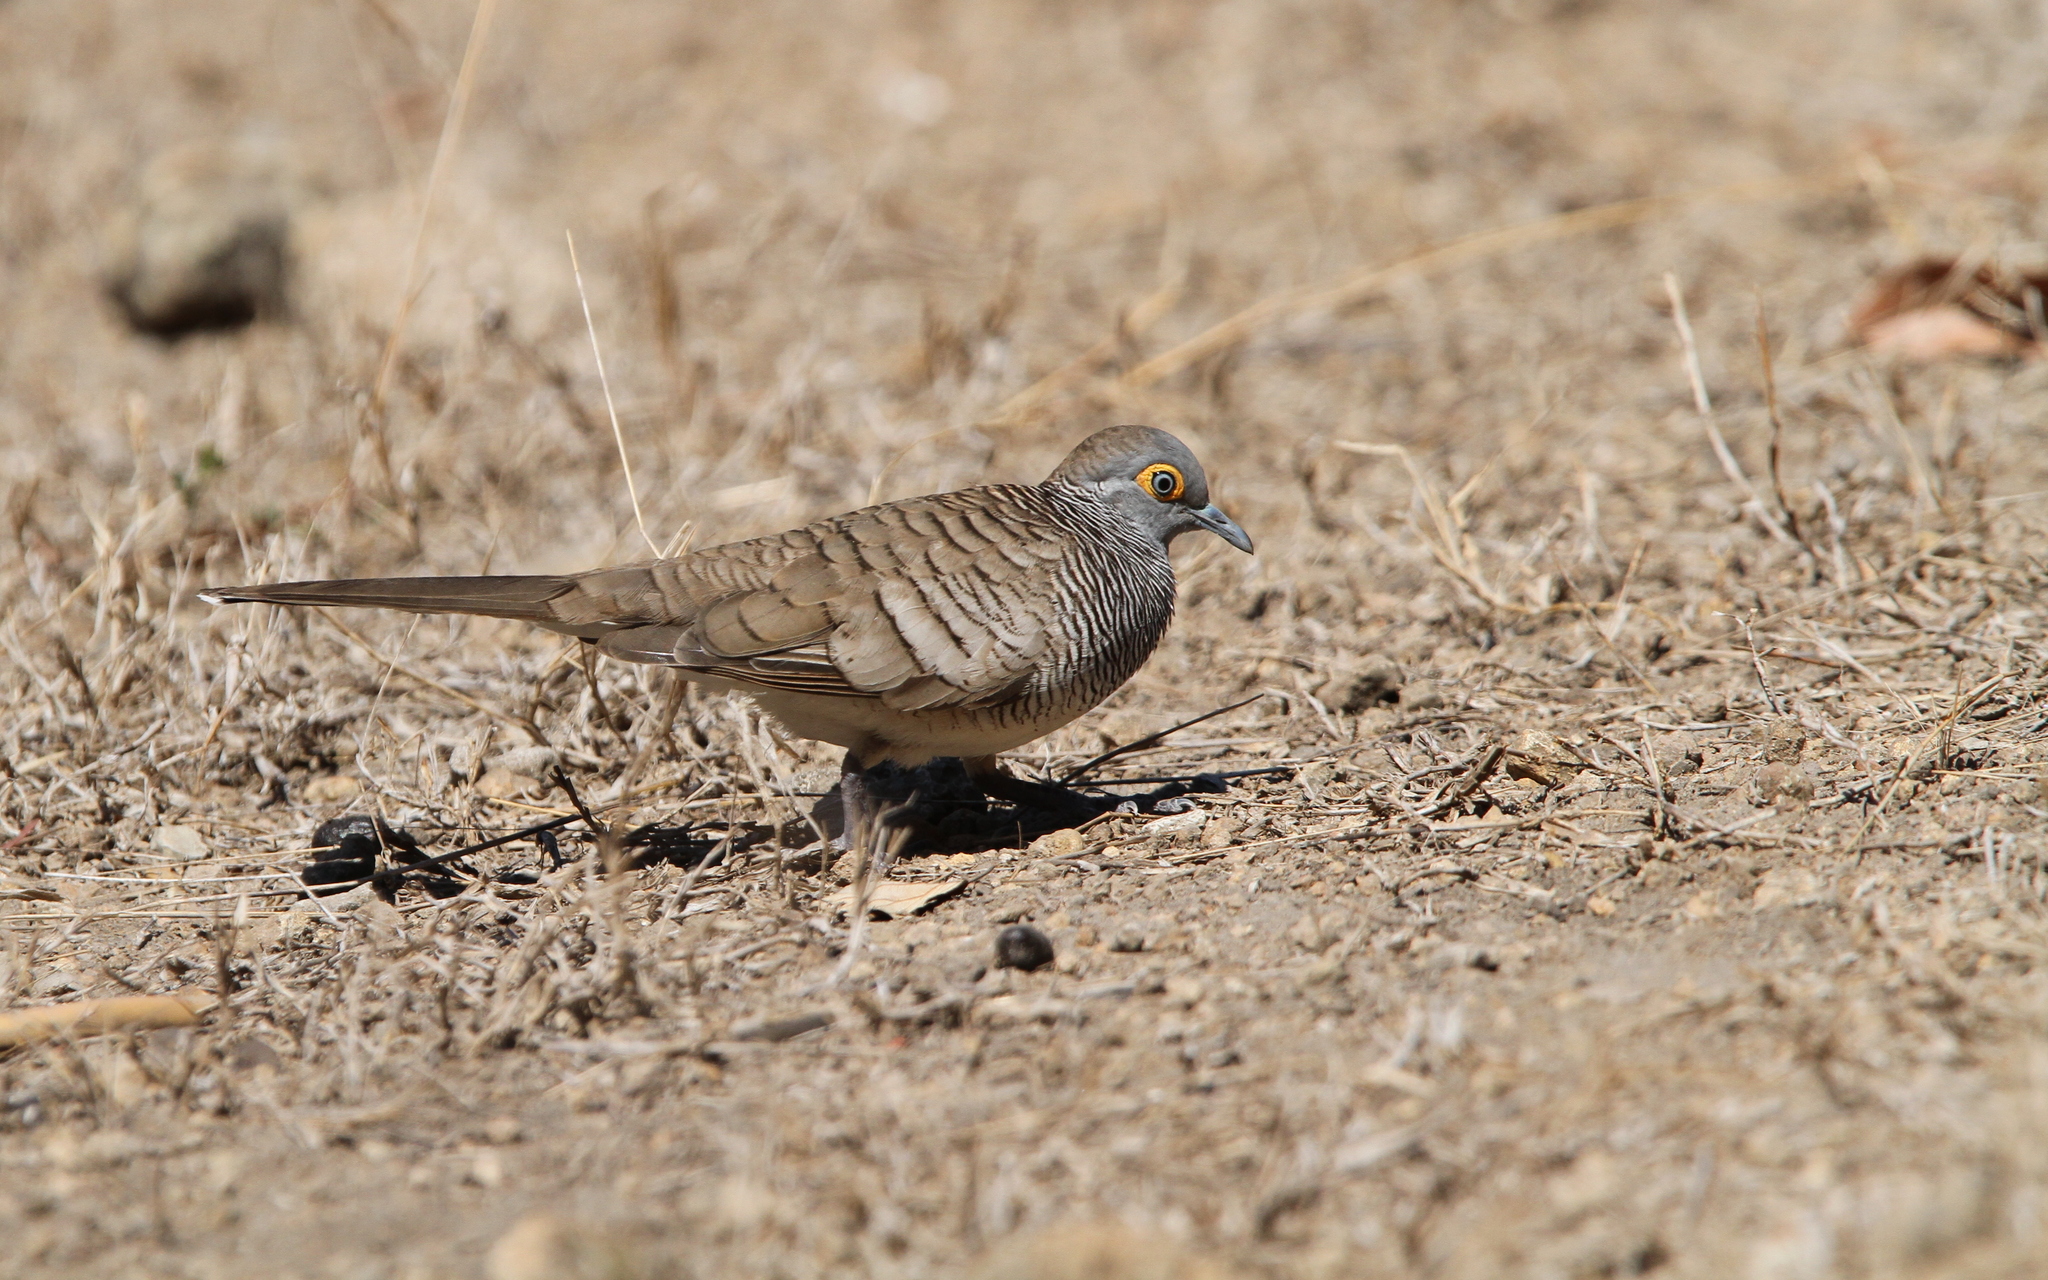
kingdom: Animalia
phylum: Chordata
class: Aves
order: Columbiformes
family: Columbidae
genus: Geopelia
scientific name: Geopelia maugeus
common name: Barred dove
